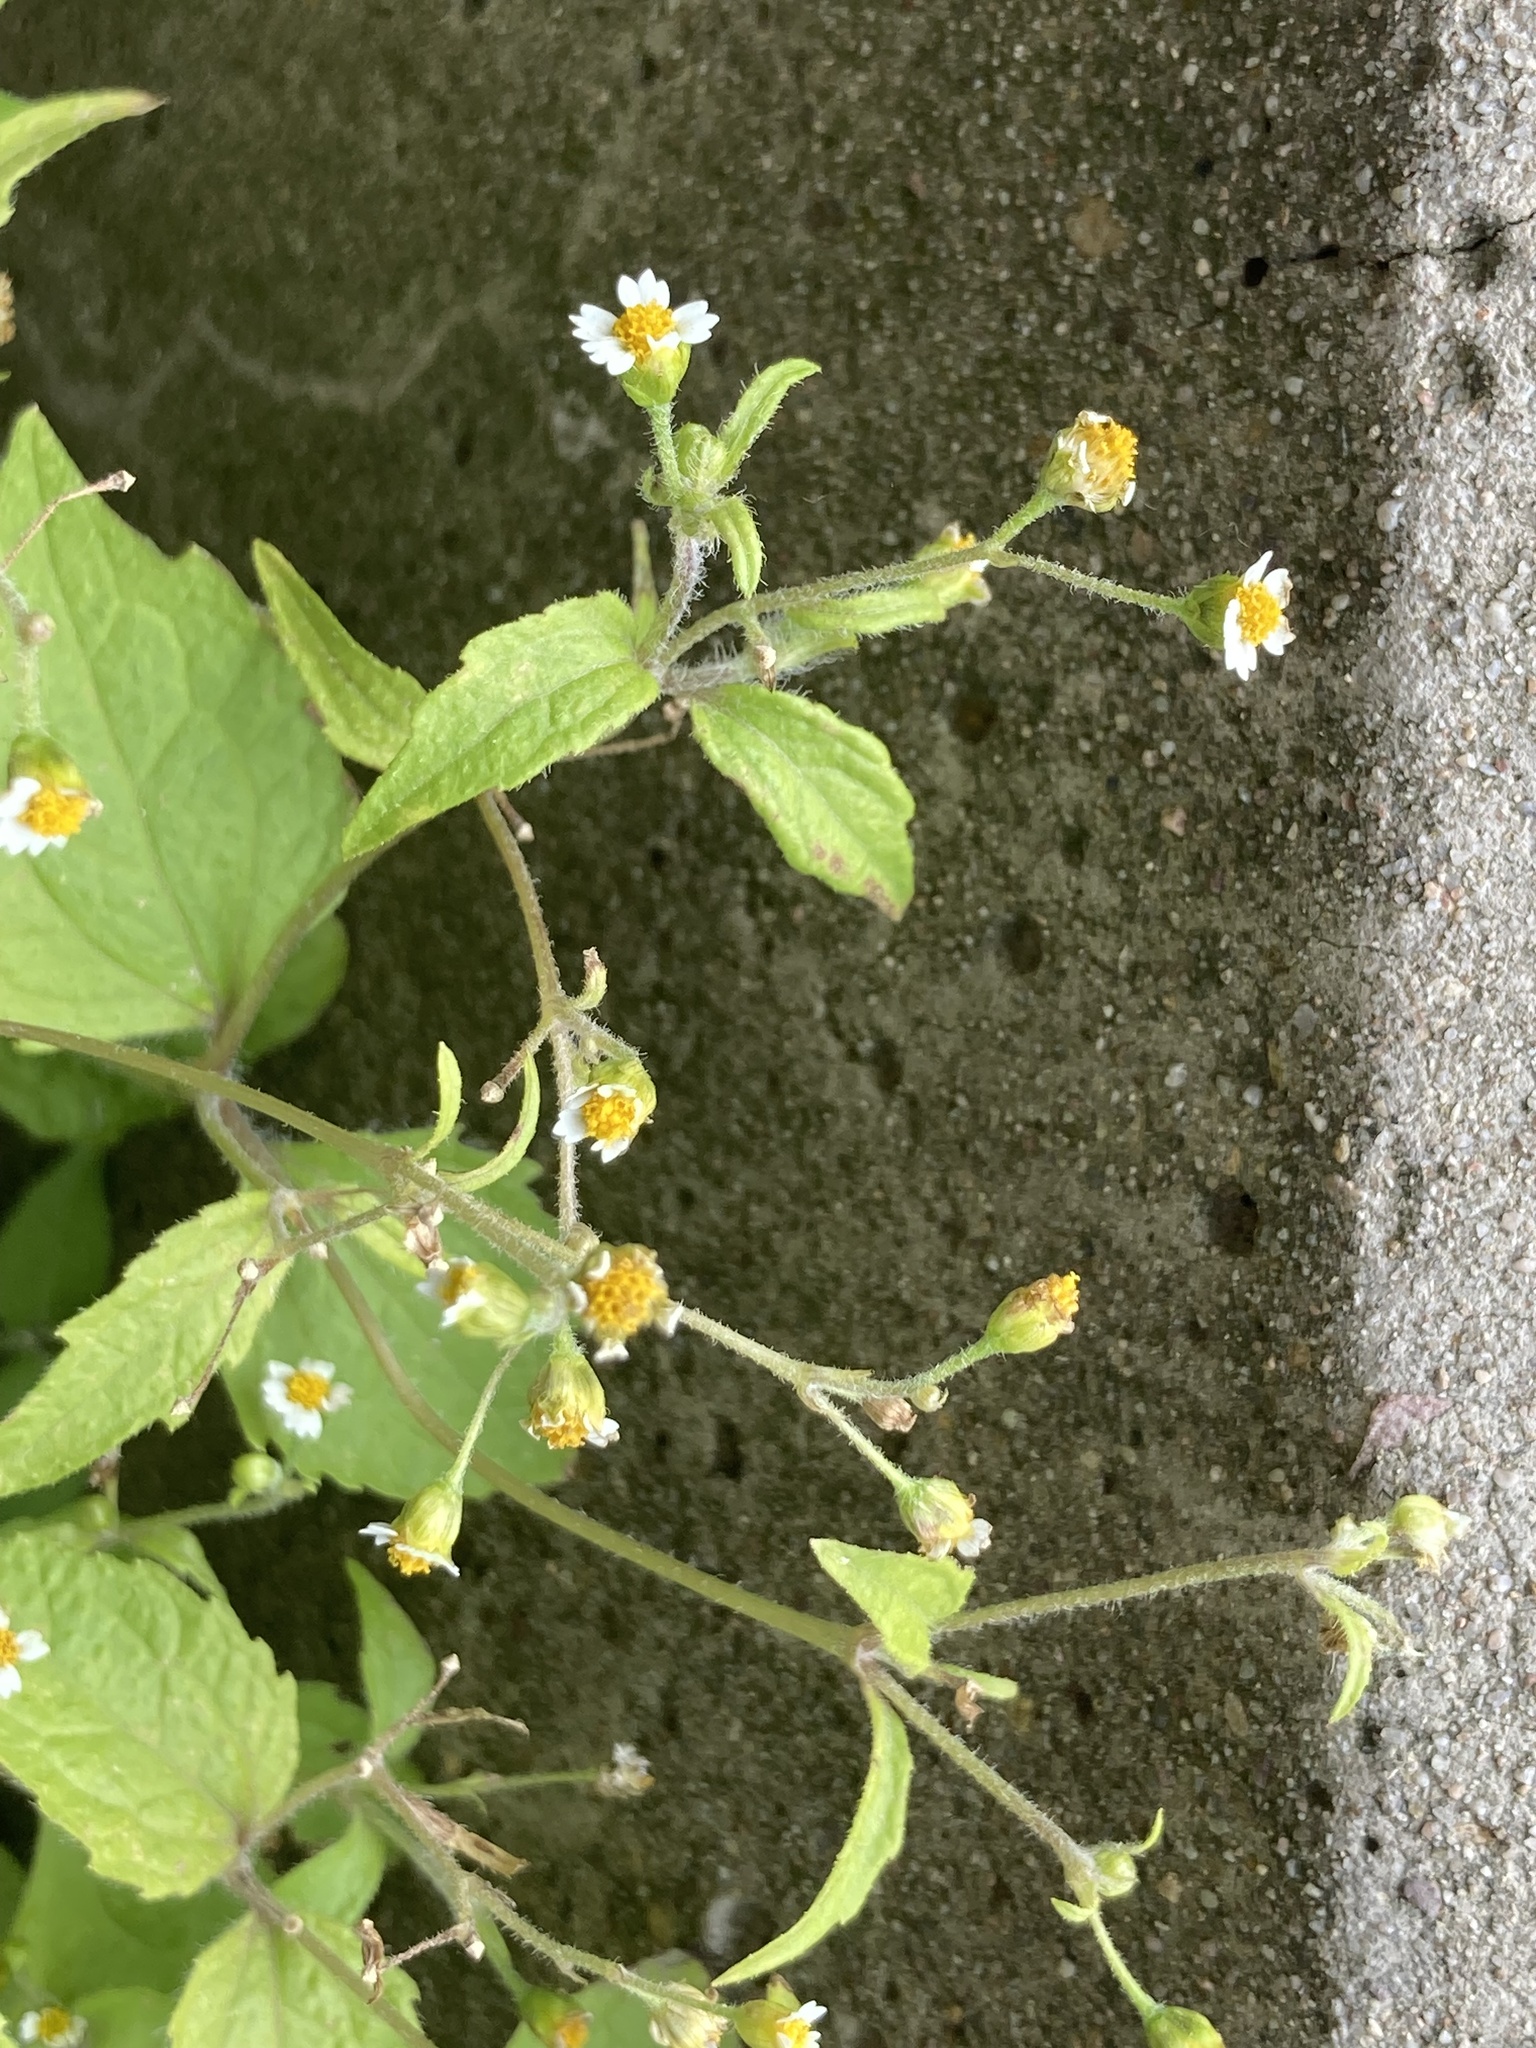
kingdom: Plantae
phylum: Tracheophyta
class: Magnoliopsida
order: Asterales
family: Asteraceae
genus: Galinsoga
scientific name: Galinsoga quadriradiata
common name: Shaggy soldier
